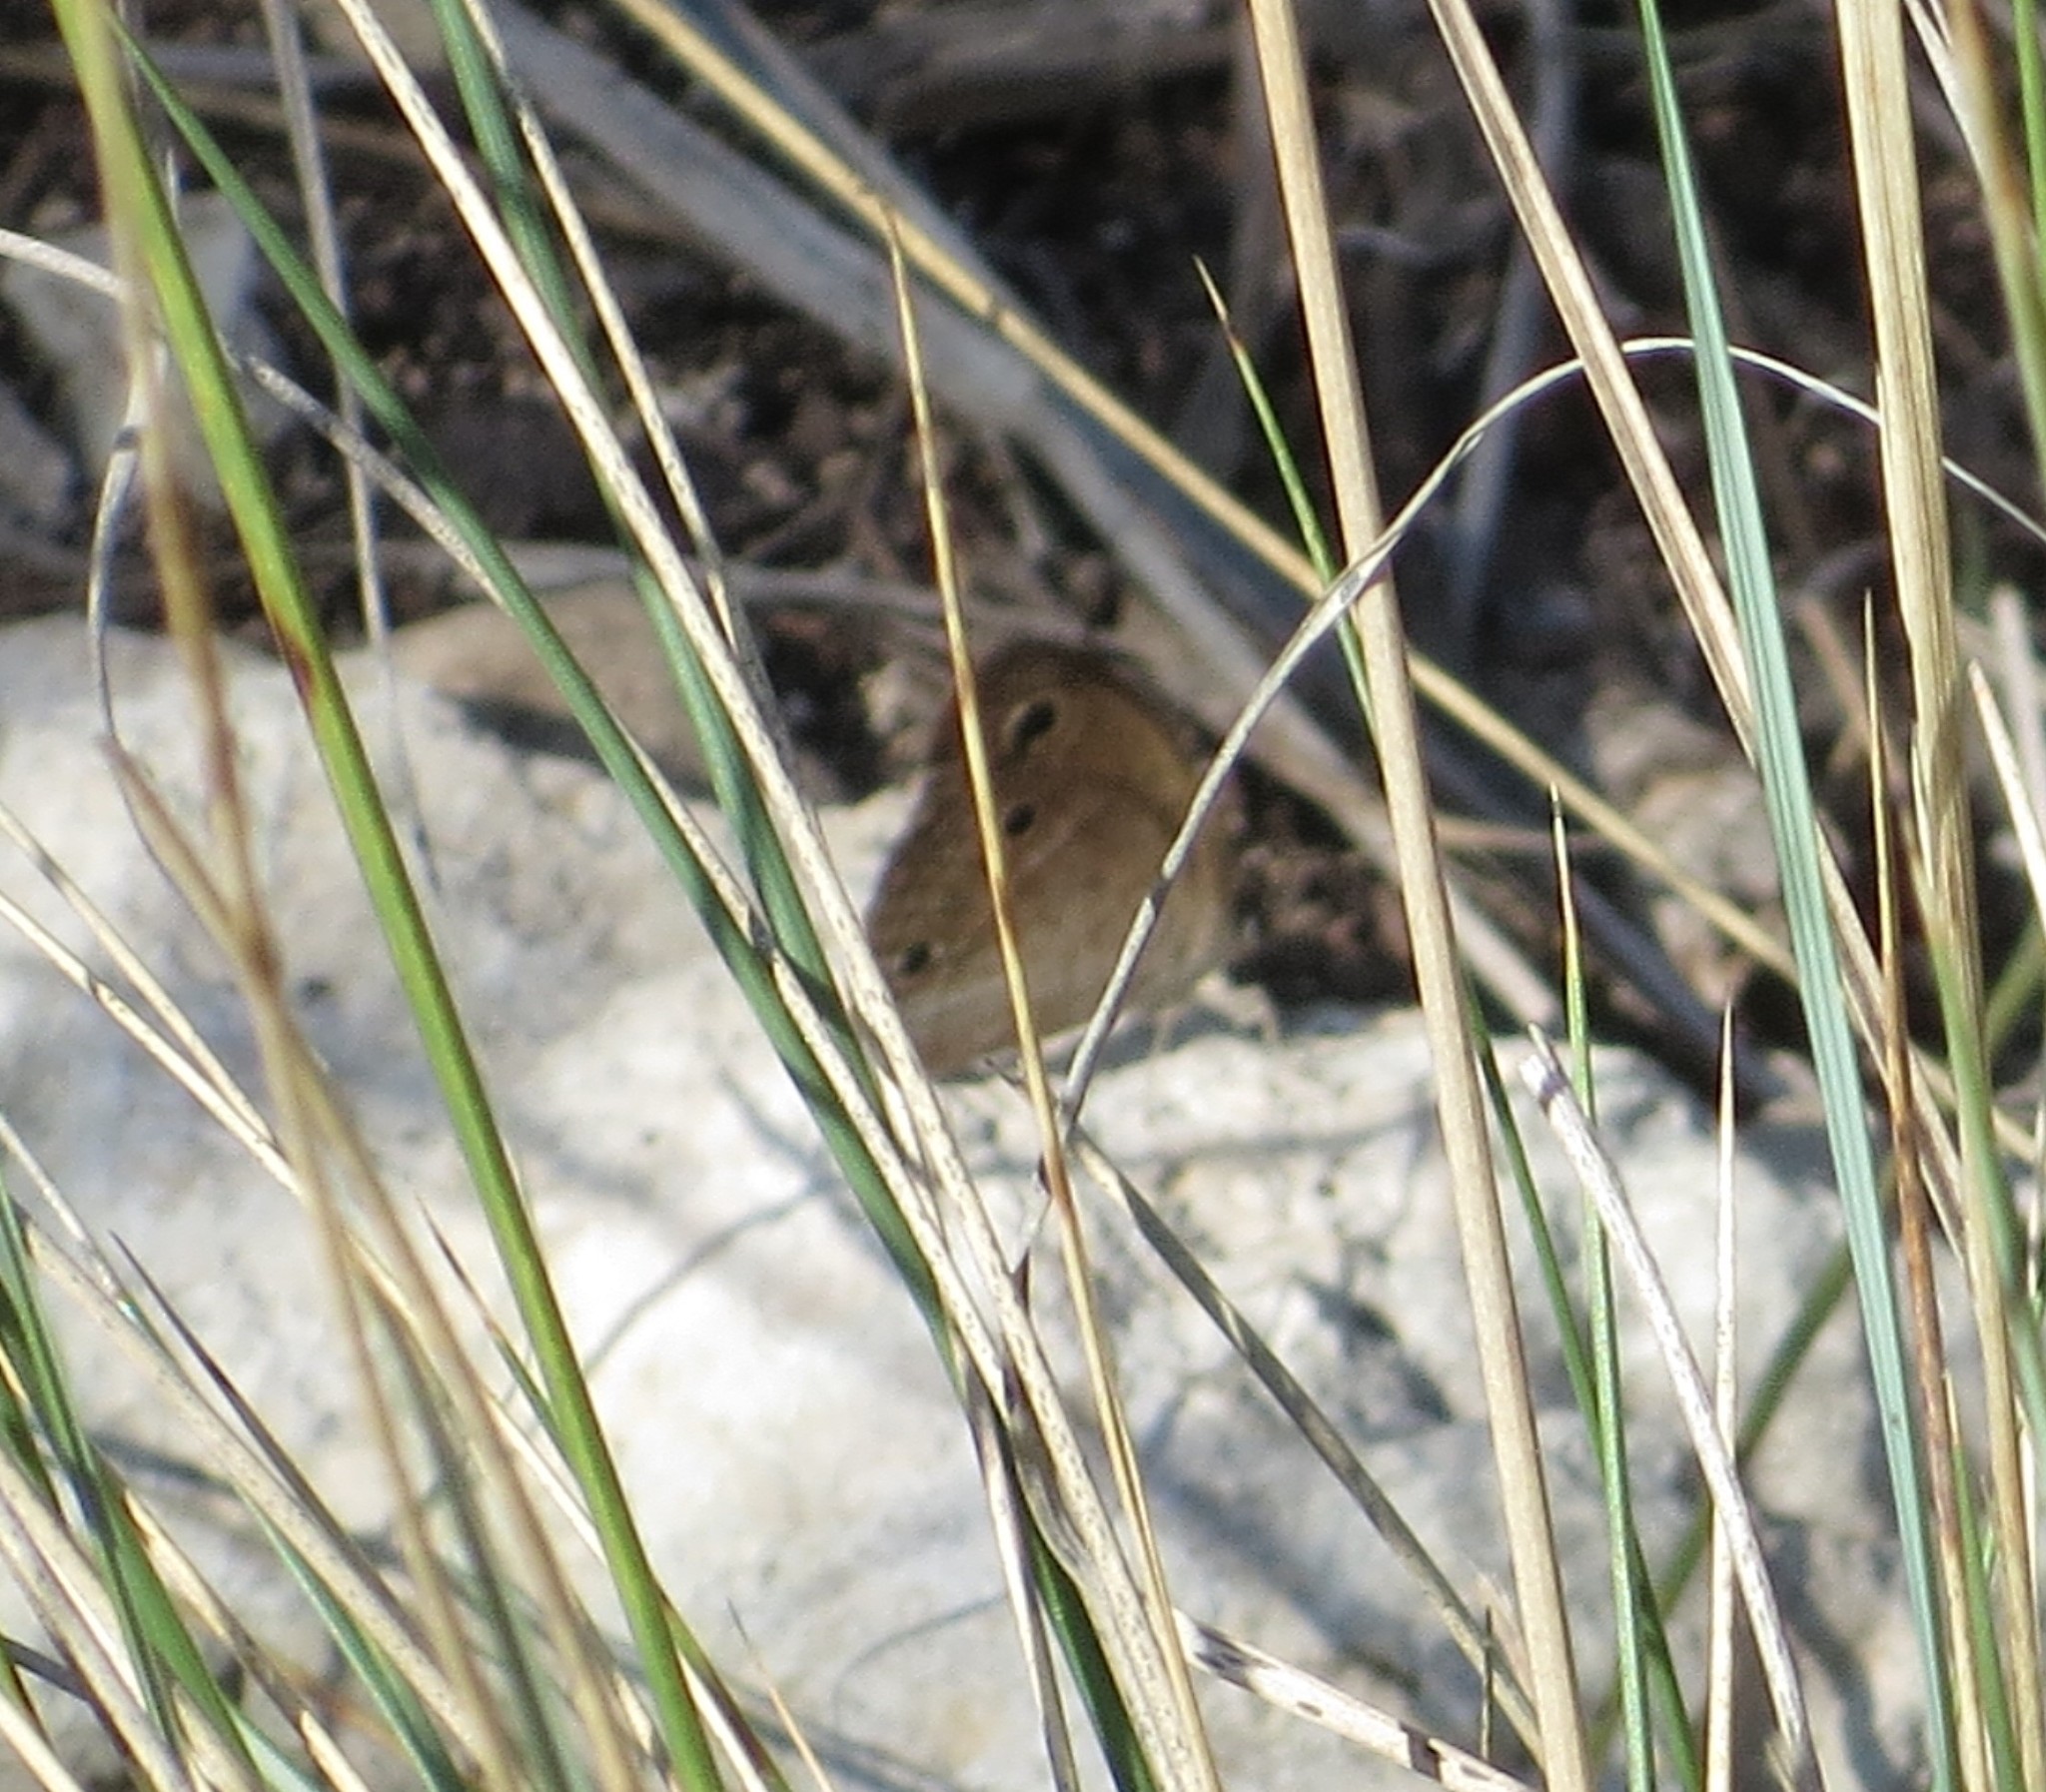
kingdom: Animalia
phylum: Arthropoda
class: Insecta
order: Lepidoptera
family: Nymphalidae
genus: Euptychia
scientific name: Euptychia Cissia rubricata
